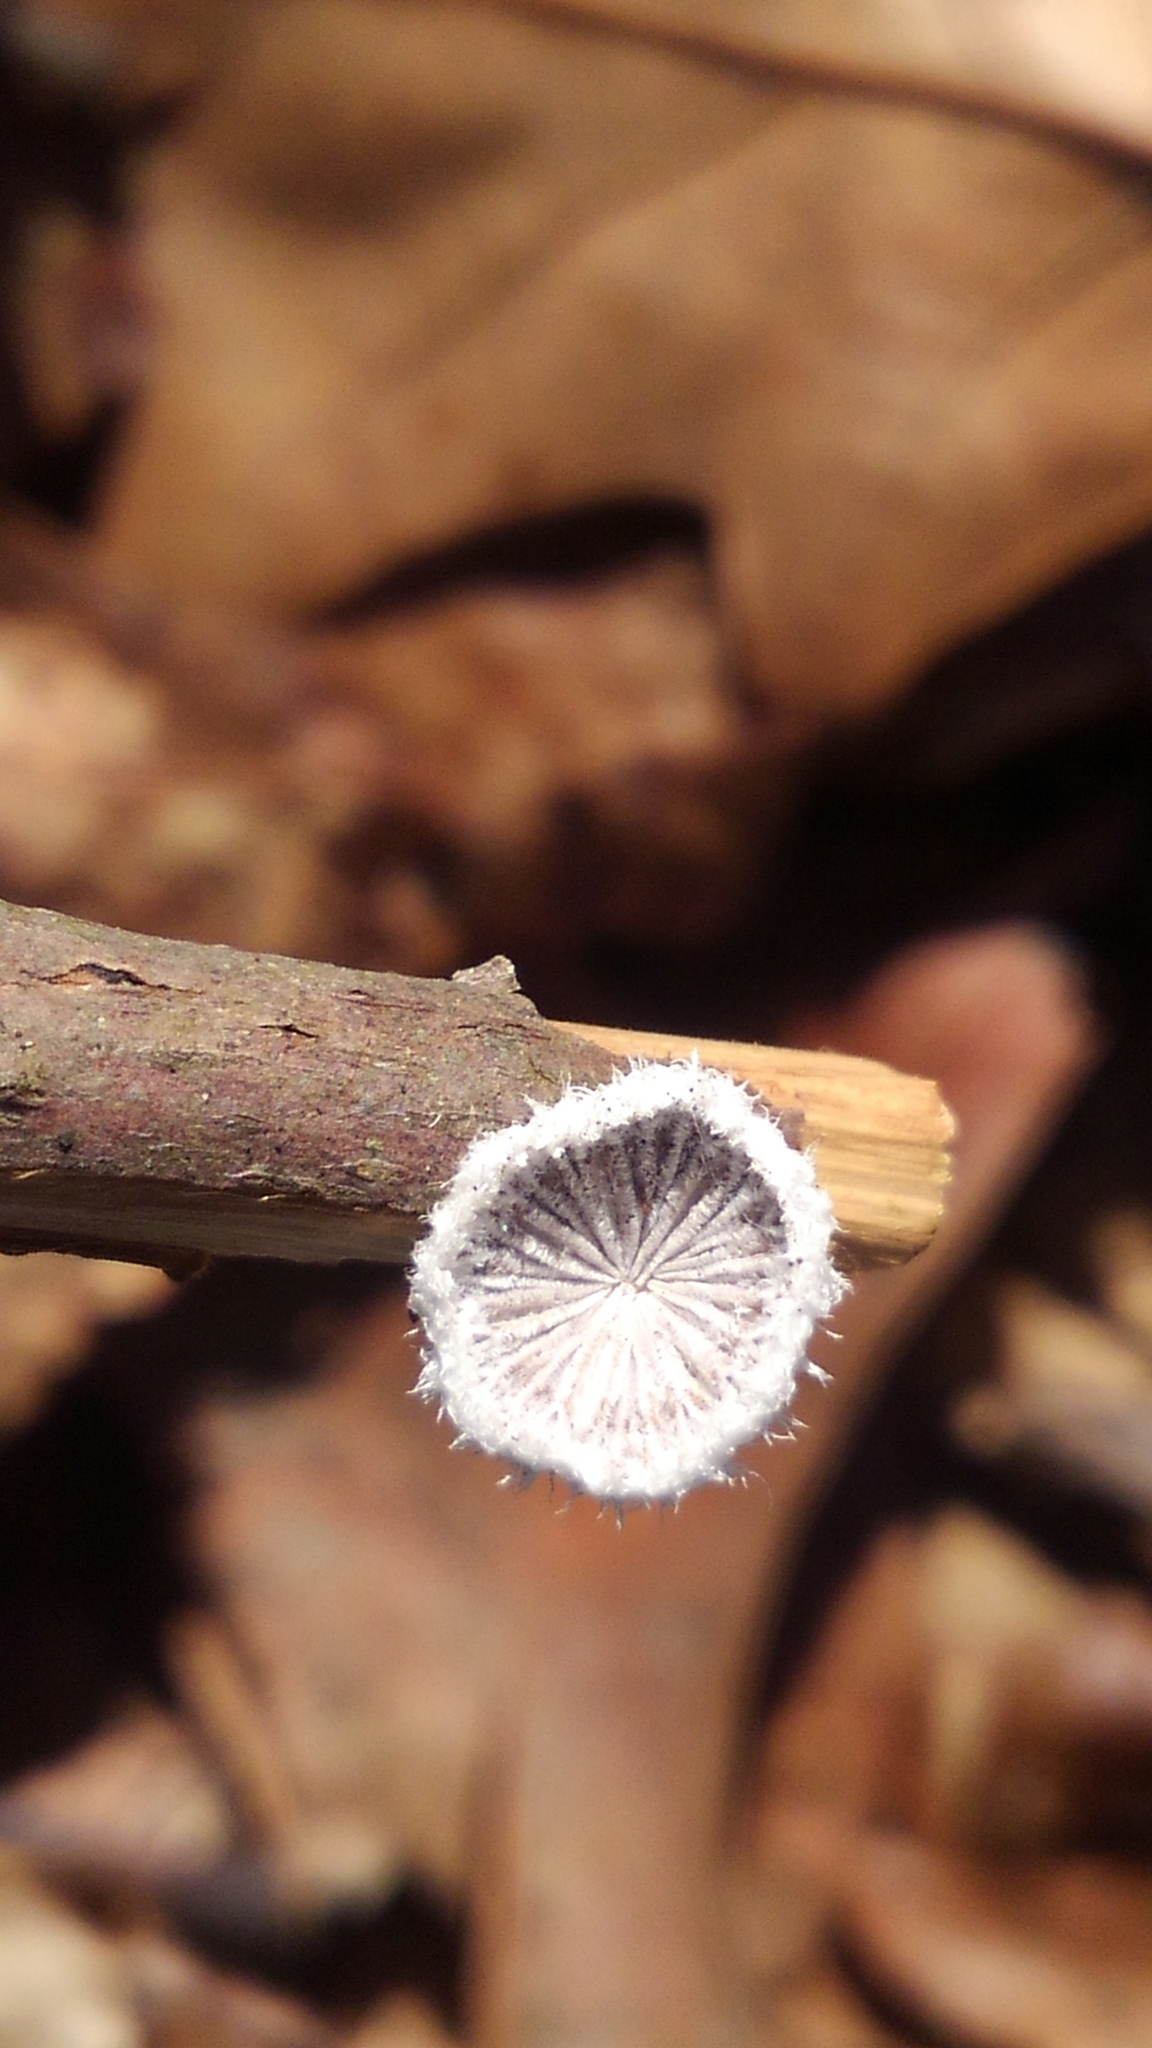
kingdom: Fungi
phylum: Basidiomycota
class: Agaricomycetes
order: Agaricales
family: Schizophyllaceae
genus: Schizophyllum
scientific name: Schizophyllum commune
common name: Common porecrust
